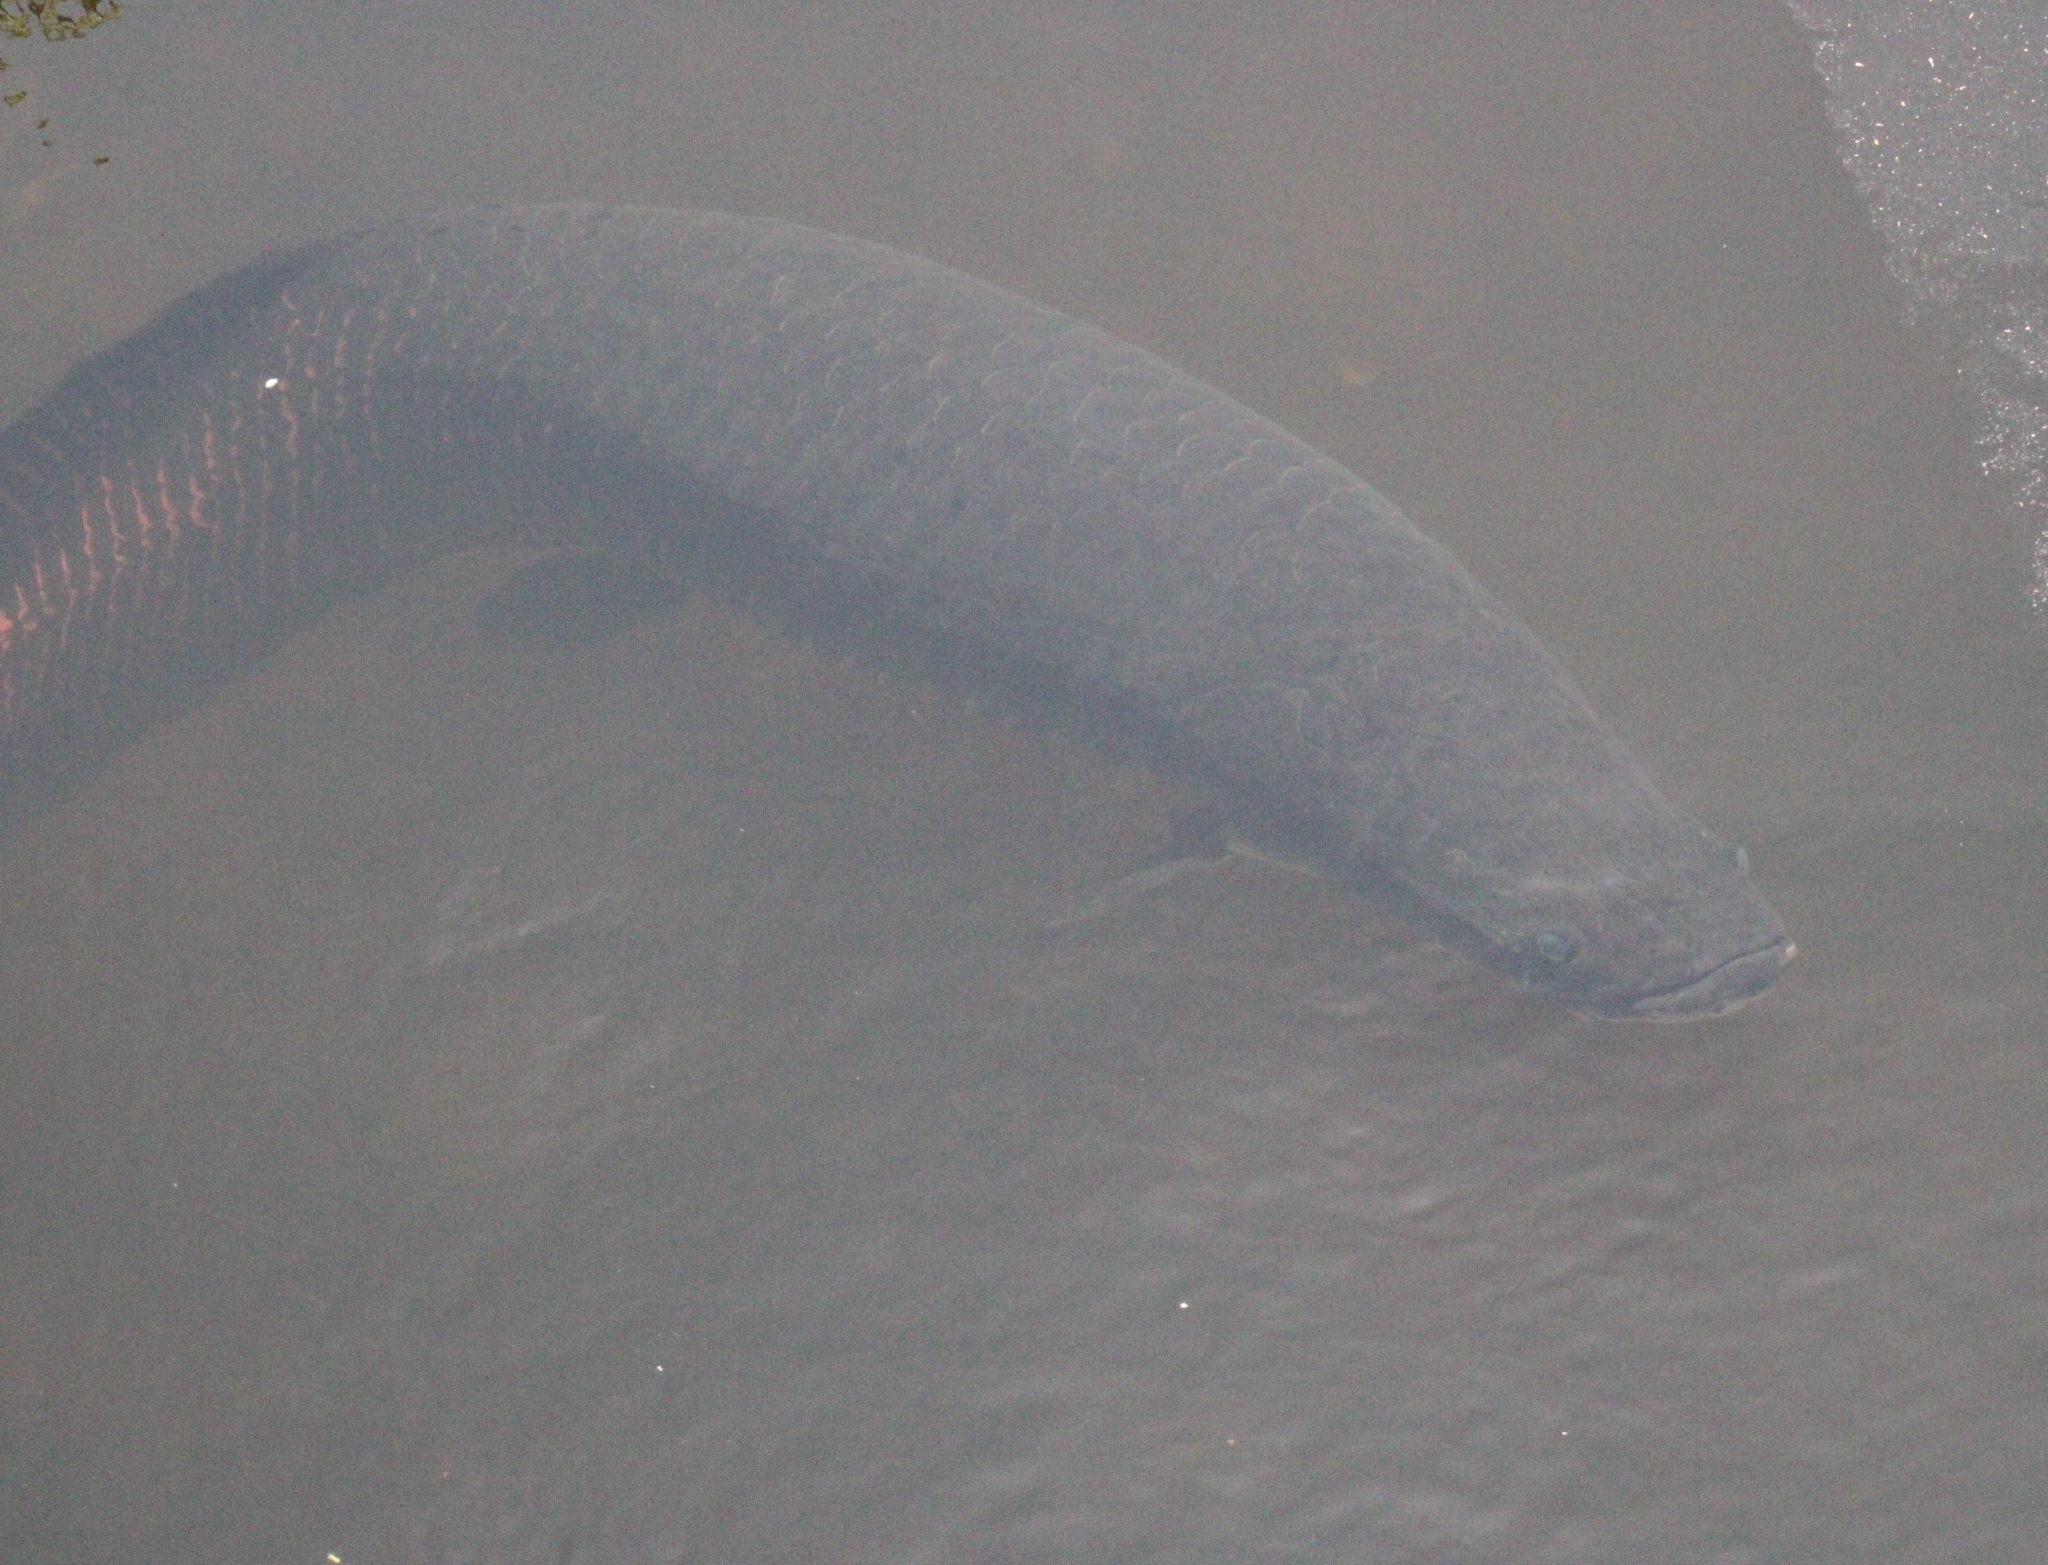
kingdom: Animalia
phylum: Chordata
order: Osteoglossiformes
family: Arapaimidae
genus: Arapaima
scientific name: Arapaima gigas
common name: Arapaima
